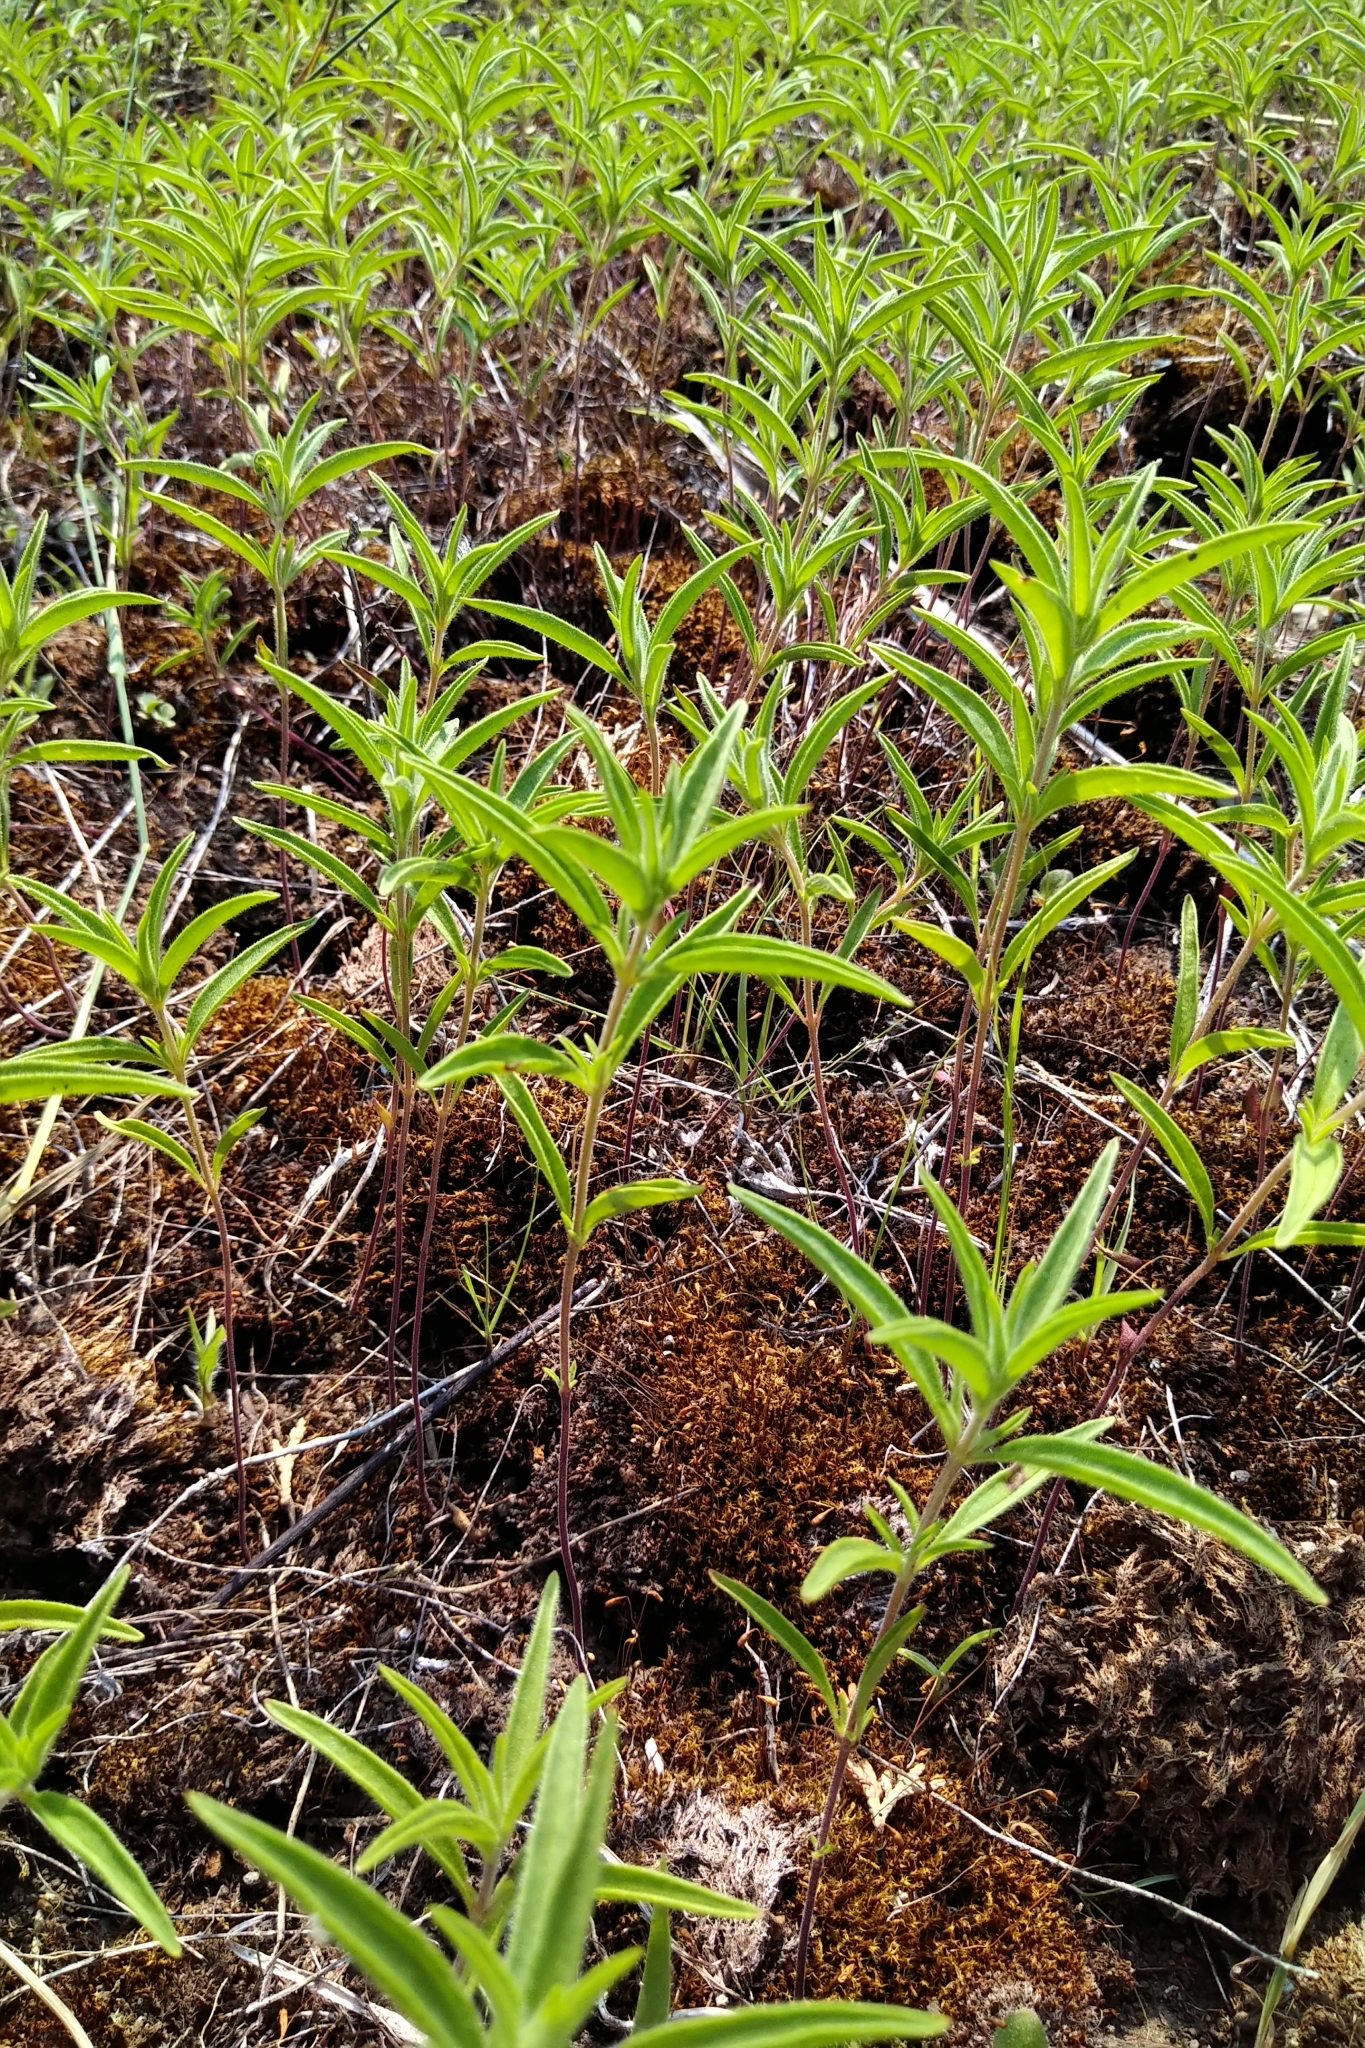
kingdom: Plantae
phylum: Tracheophyta
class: Magnoliopsida
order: Lamiales
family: Lamiaceae
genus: Trichostema
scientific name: Trichostema brachiatum
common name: False pennyroyal
